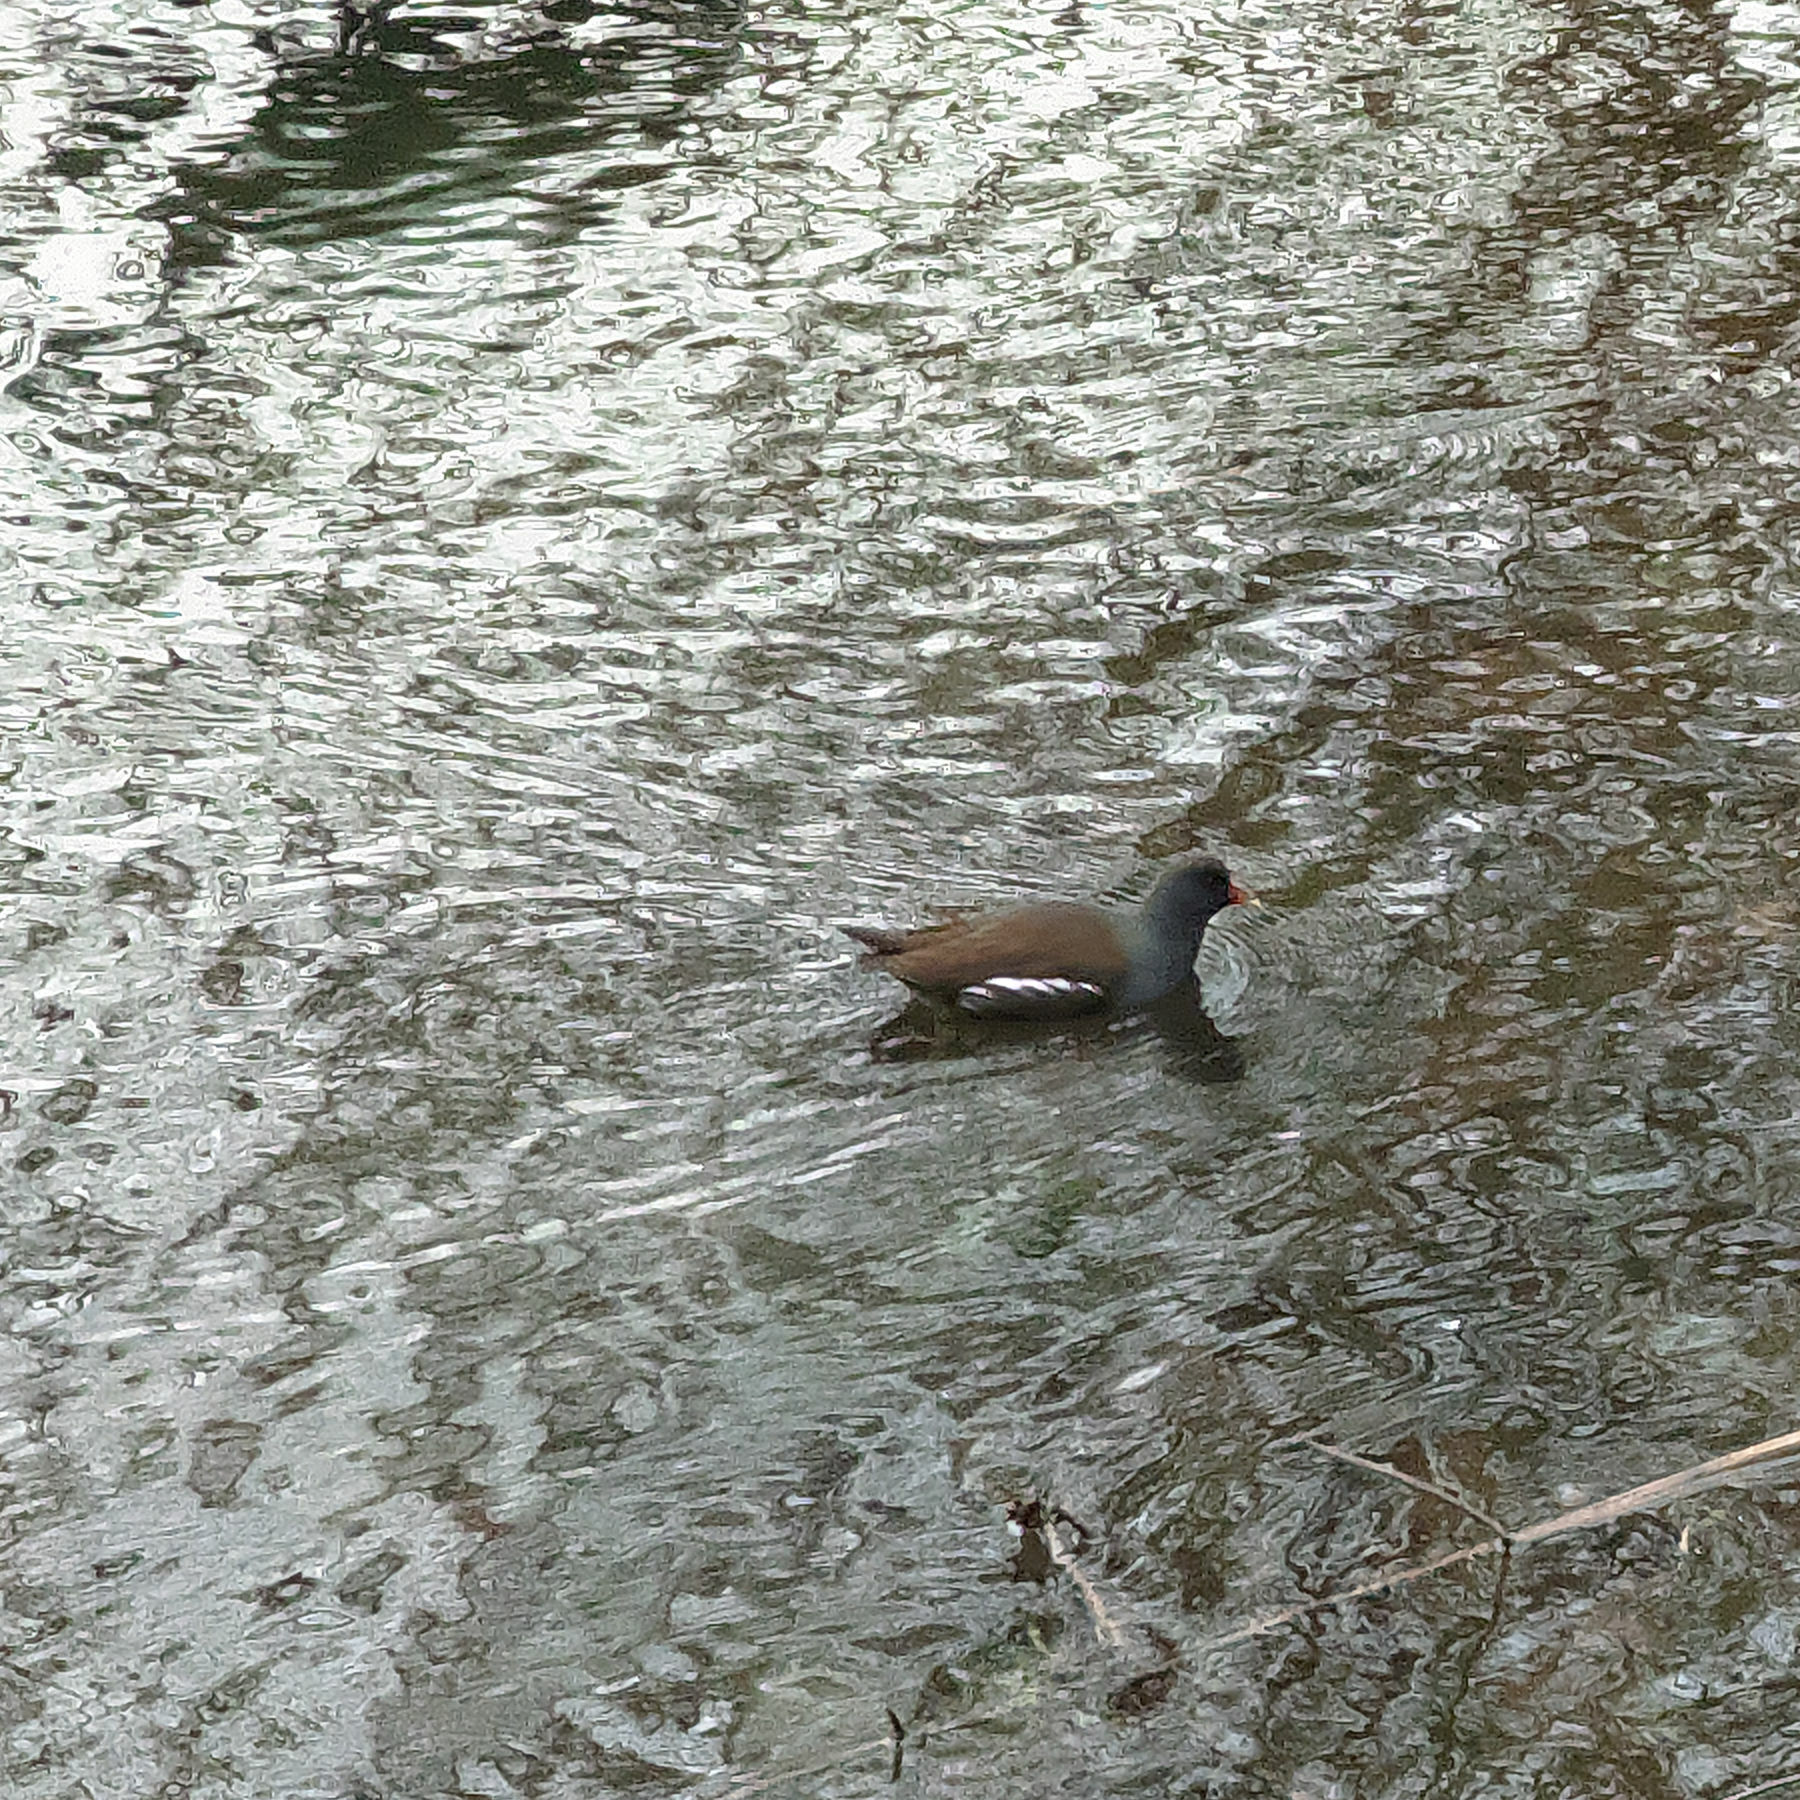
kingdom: Animalia
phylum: Chordata
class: Aves
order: Gruiformes
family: Rallidae
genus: Gallinula
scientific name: Gallinula chloropus
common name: Common moorhen
